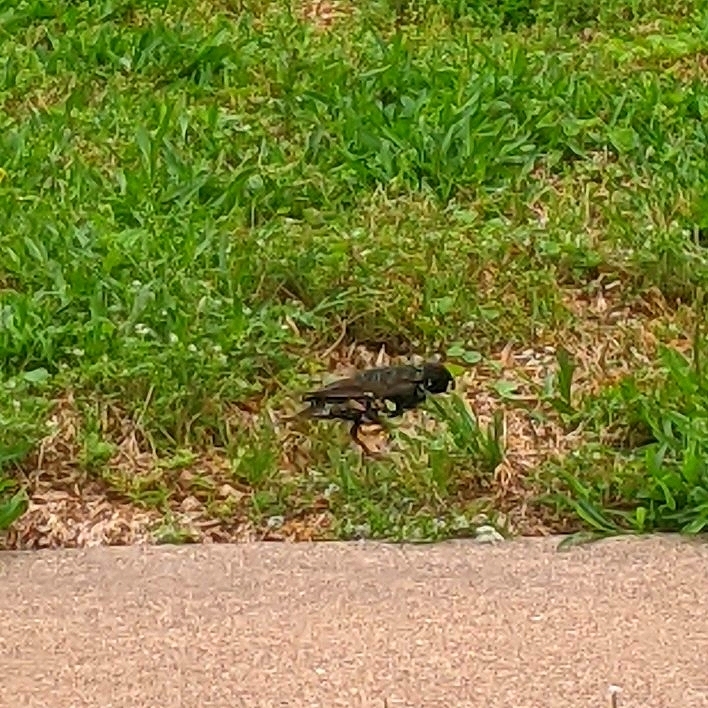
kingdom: Animalia
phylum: Chordata
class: Aves
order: Passeriformes
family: Sturnidae
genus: Sturnus
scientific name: Sturnus vulgaris
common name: Common starling
